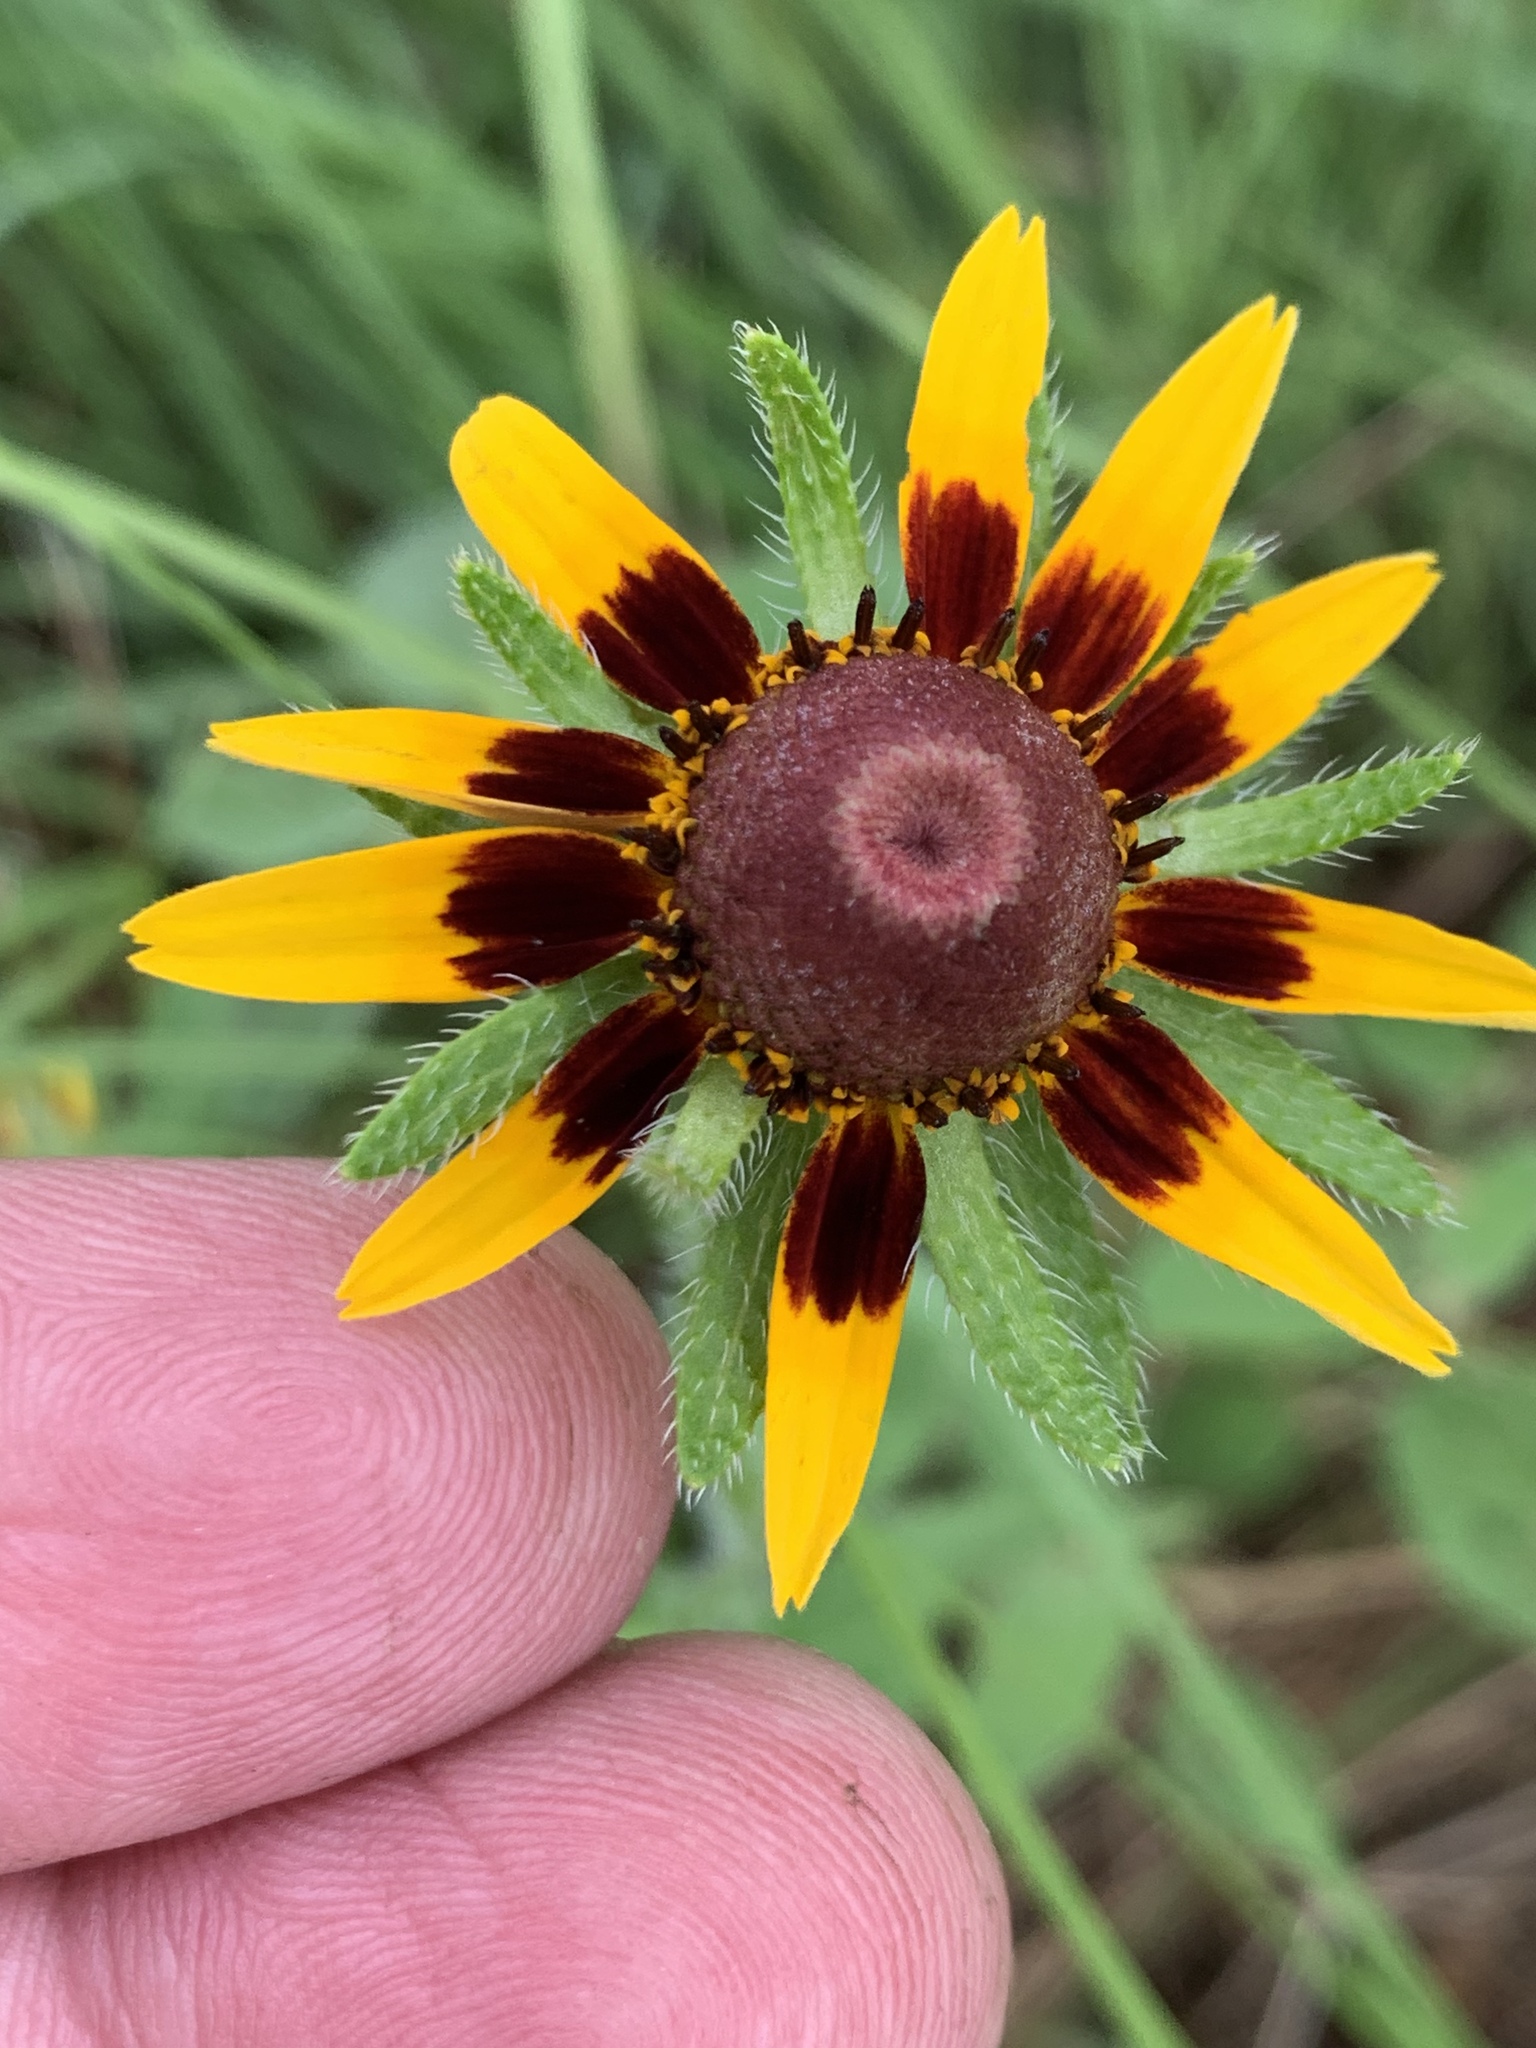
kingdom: Plantae
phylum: Tracheophyta
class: Magnoliopsida
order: Asterales
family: Asteraceae
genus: Rudbeckia
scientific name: Rudbeckia hirta
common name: Black-eyed-susan
